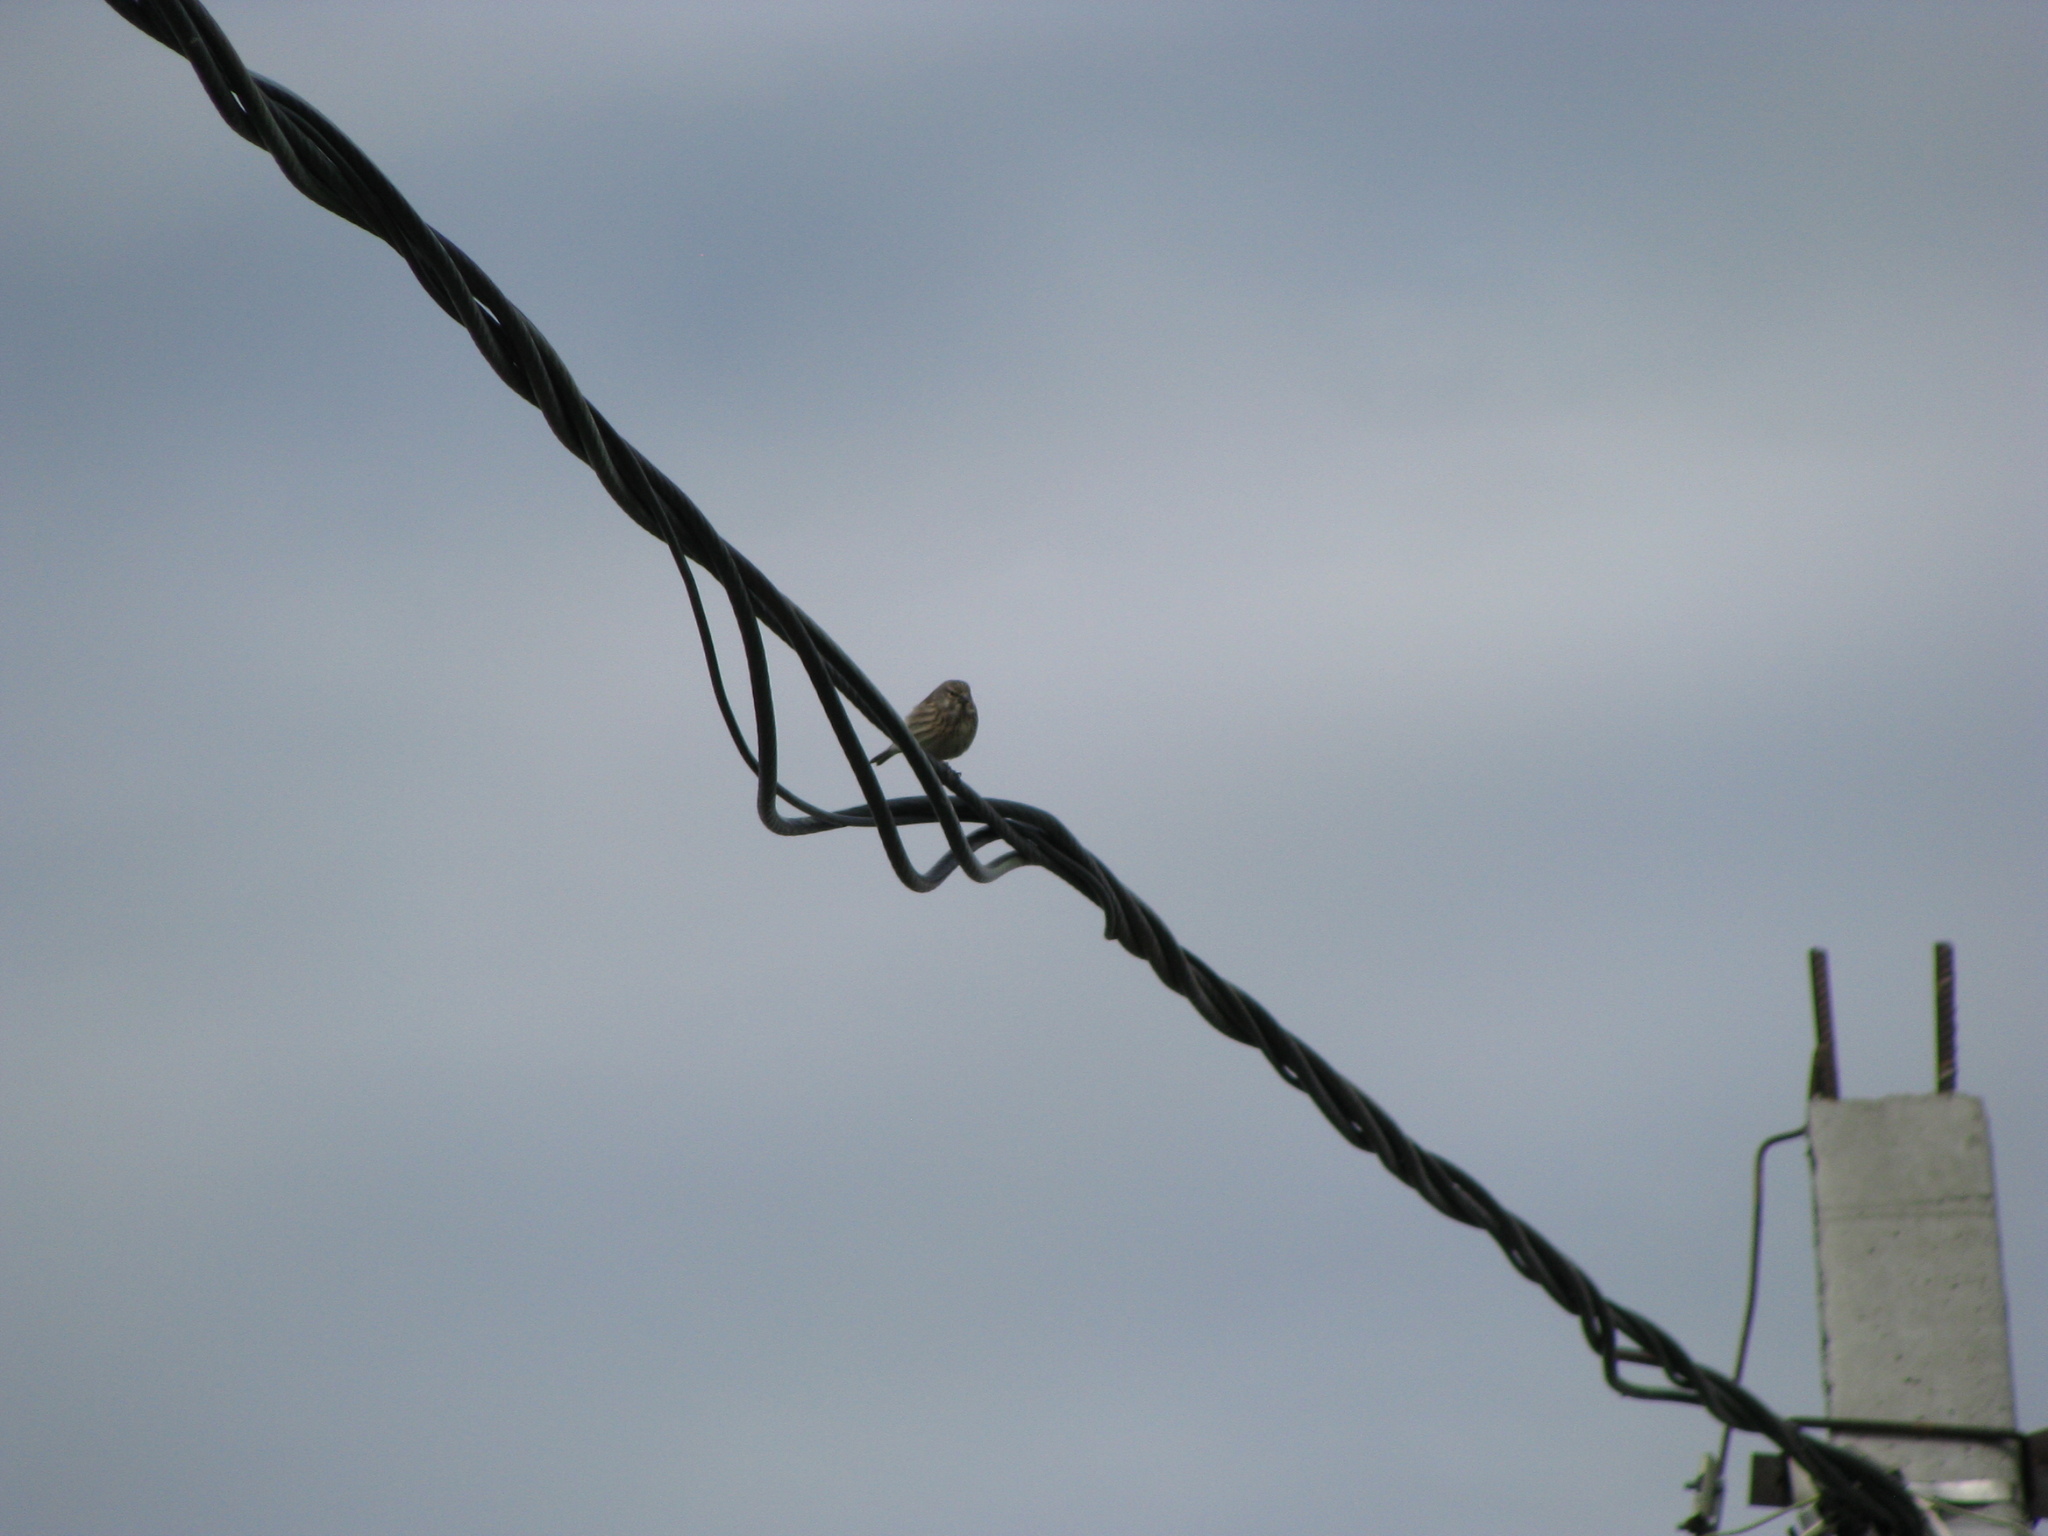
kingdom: Animalia
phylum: Chordata
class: Aves
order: Passeriformes
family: Fringillidae
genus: Linaria
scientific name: Linaria cannabina
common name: Common linnet
